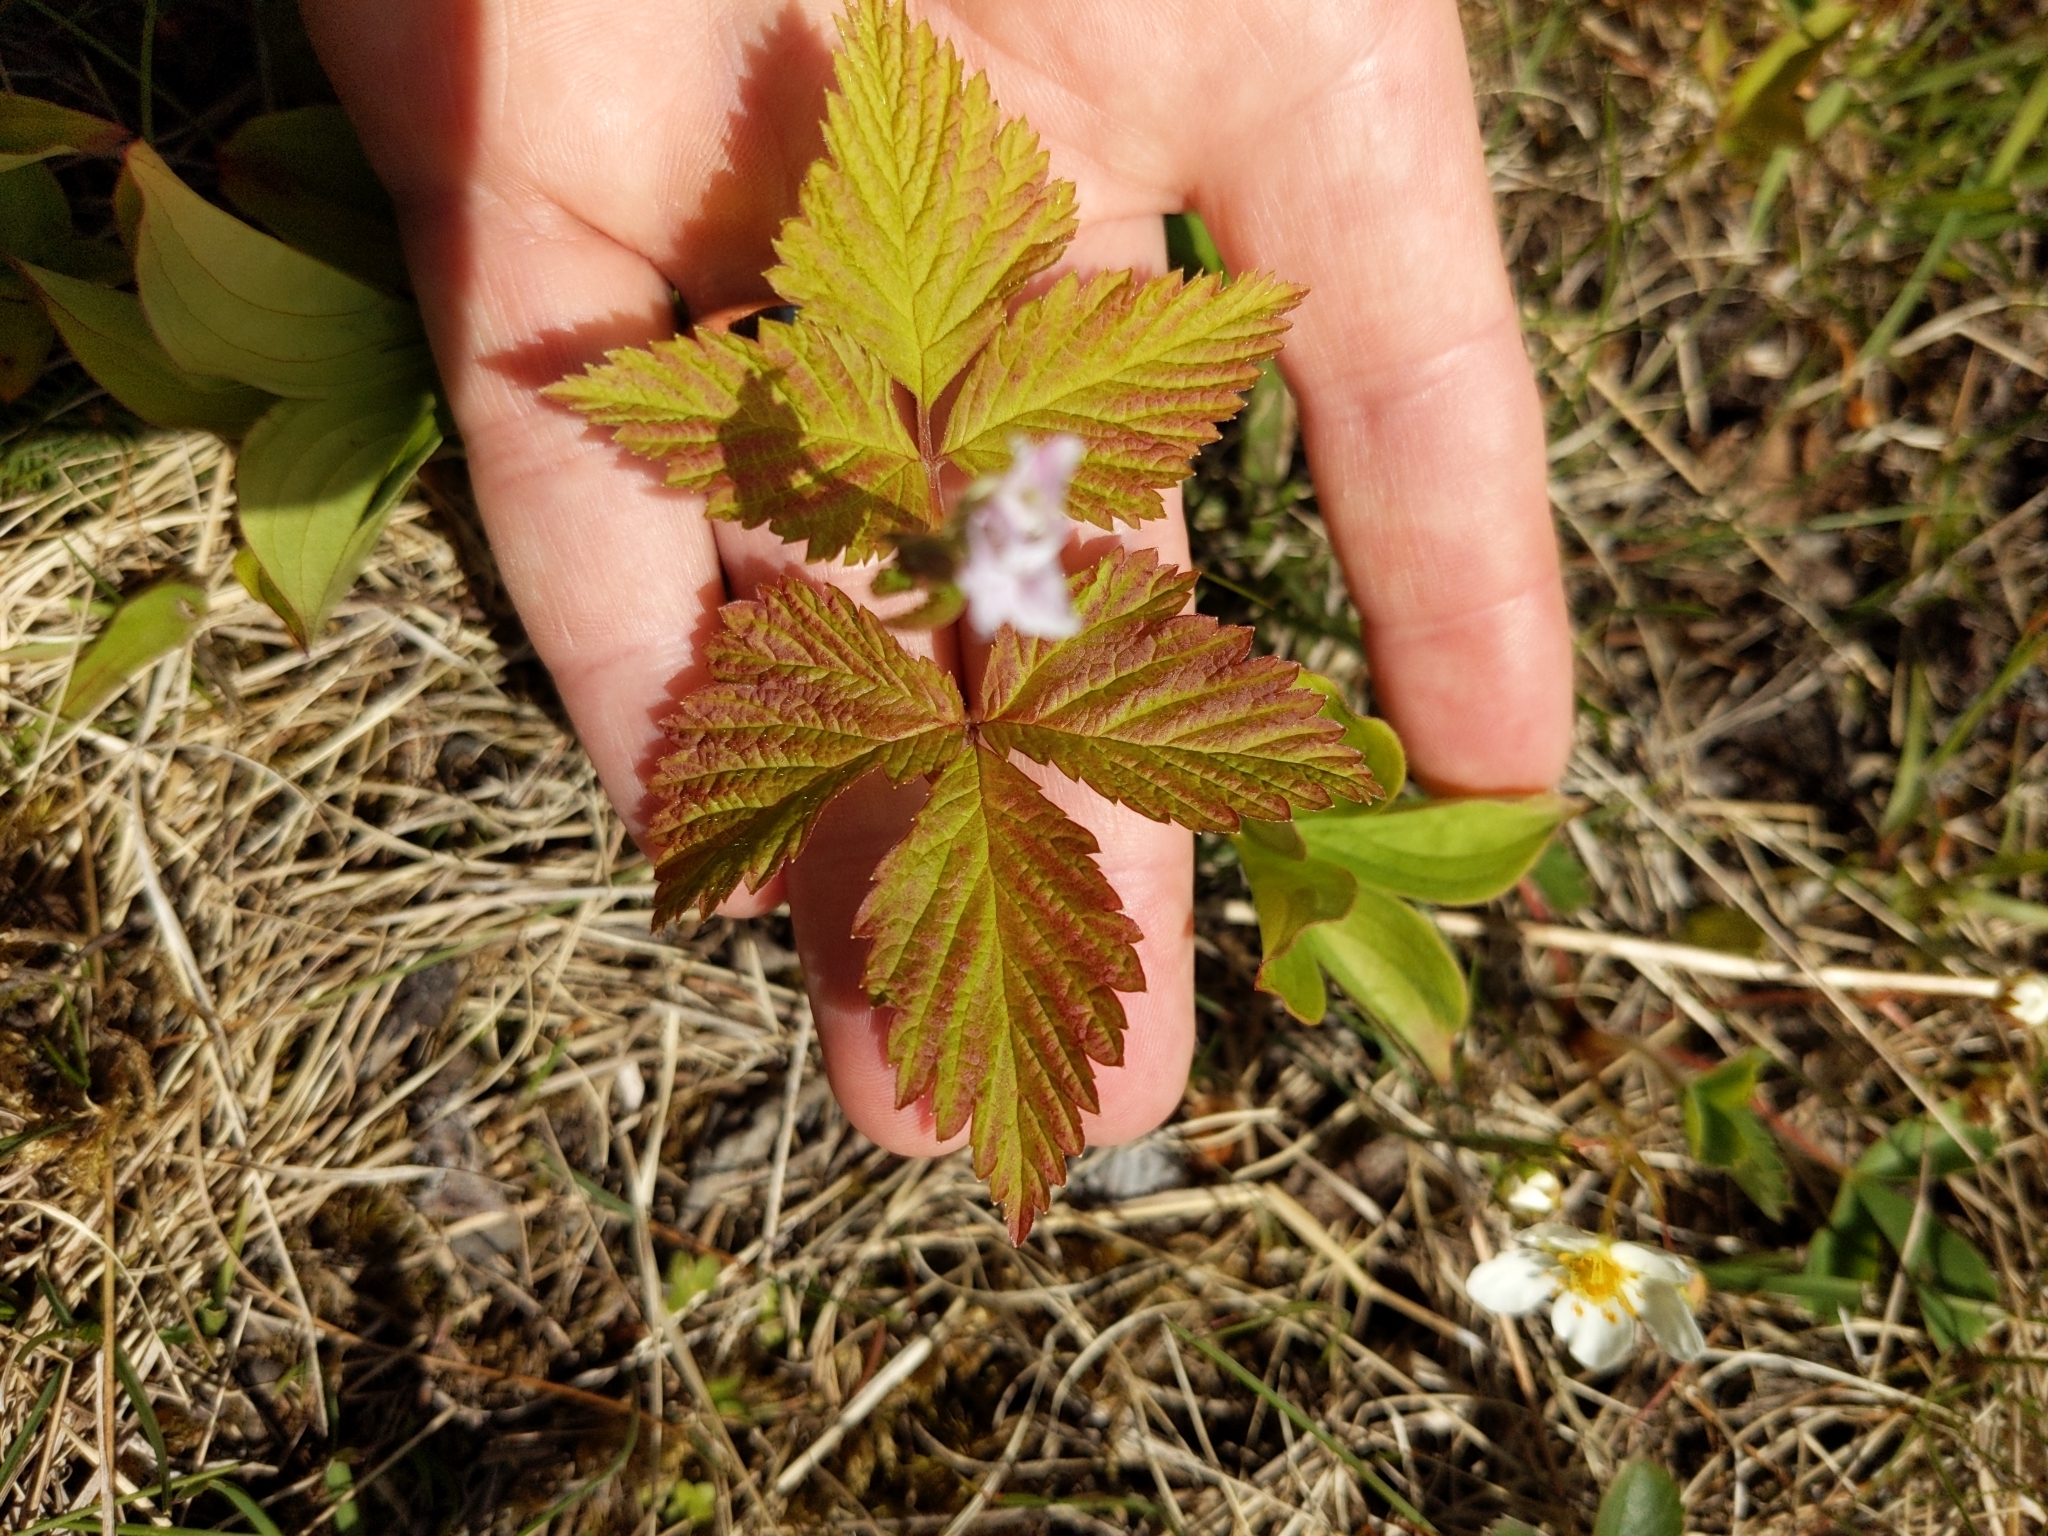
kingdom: Plantae
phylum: Tracheophyta
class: Magnoliopsida
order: Rosales
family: Rosaceae
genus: Rubus
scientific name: Rubus pubescens
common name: Dwarf raspberry
